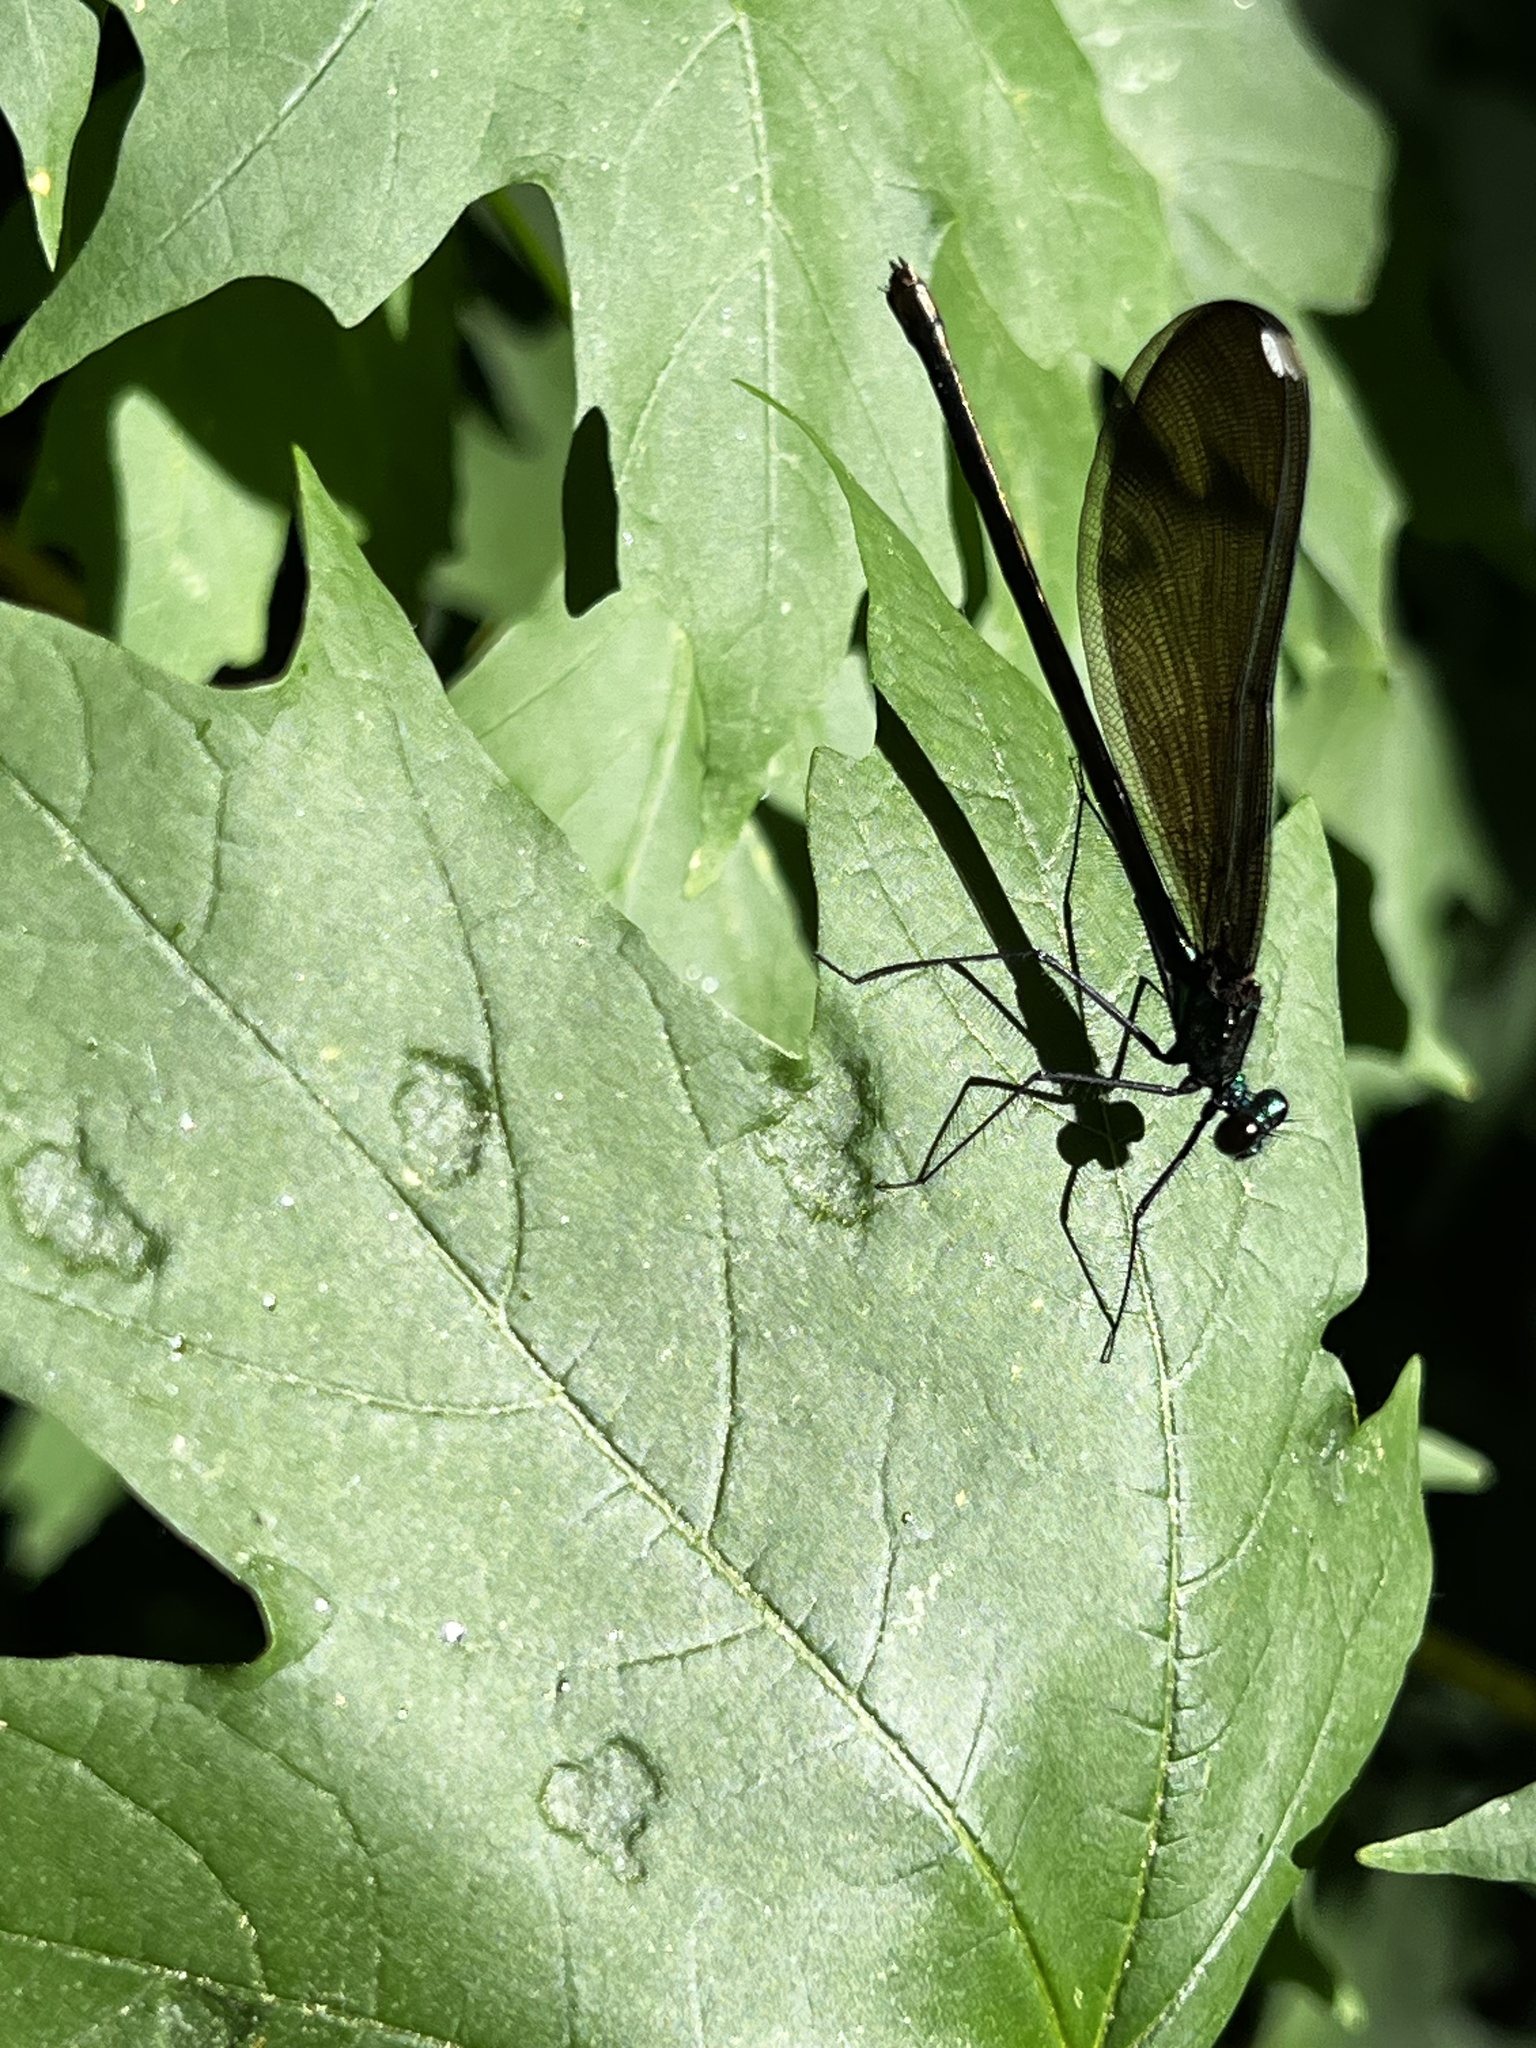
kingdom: Animalia
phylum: Arthropoda
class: Insecta
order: Odonata
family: Calopterygidae
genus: Calopteryx
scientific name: Calopteryx maculata
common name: Ebony jewelwing
